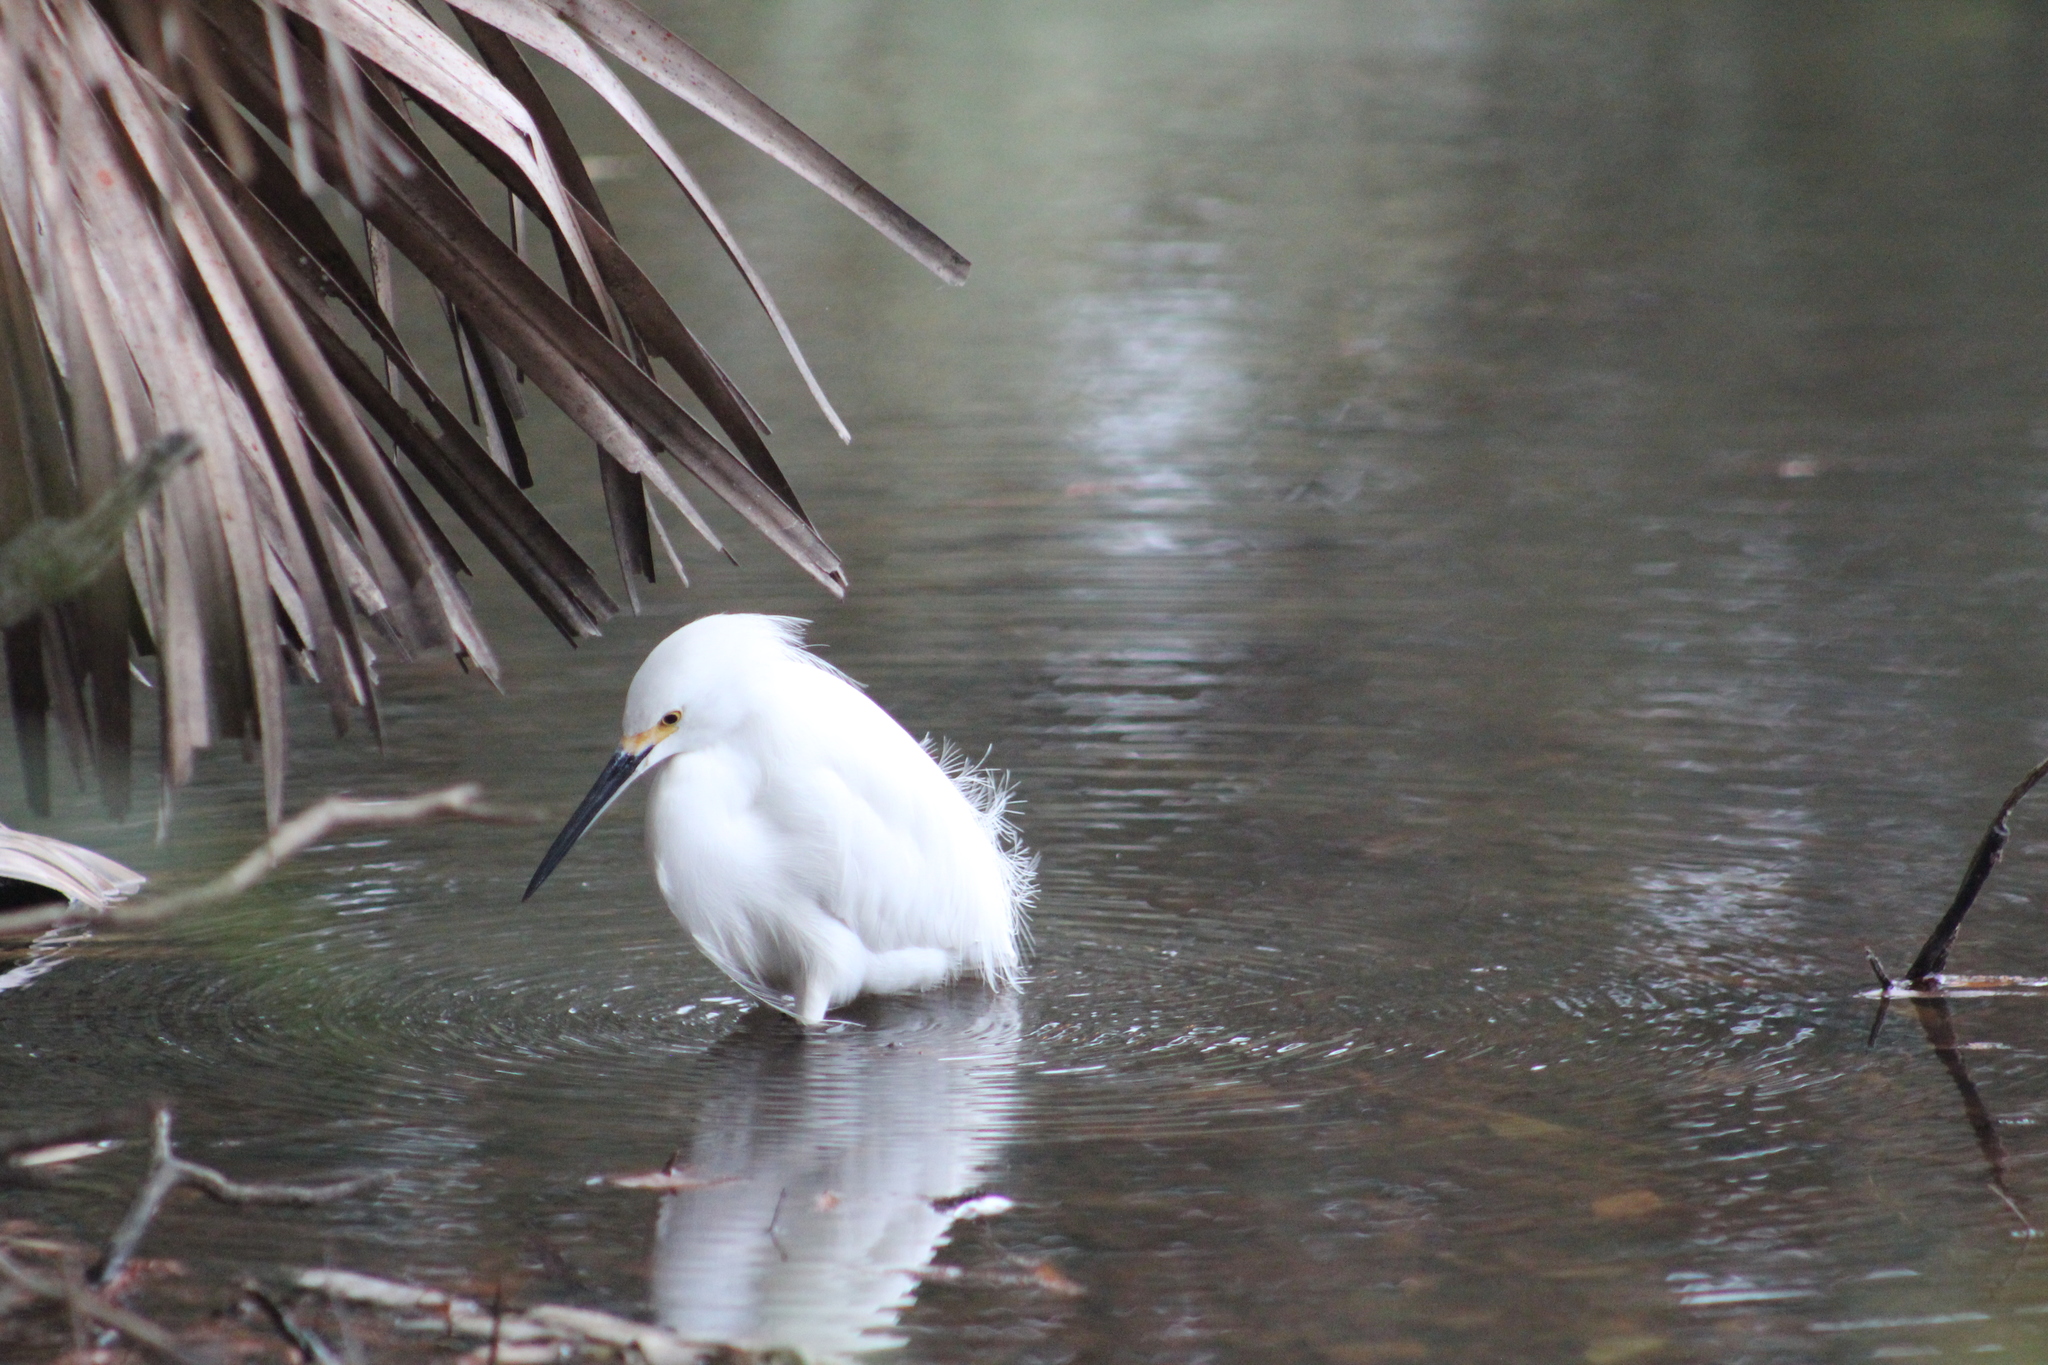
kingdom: Animalia
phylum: Chordata
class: Aves
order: Pelecaniformes
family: Ardeidae
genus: Egretta
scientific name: Egretta thula
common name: Snowy egret
